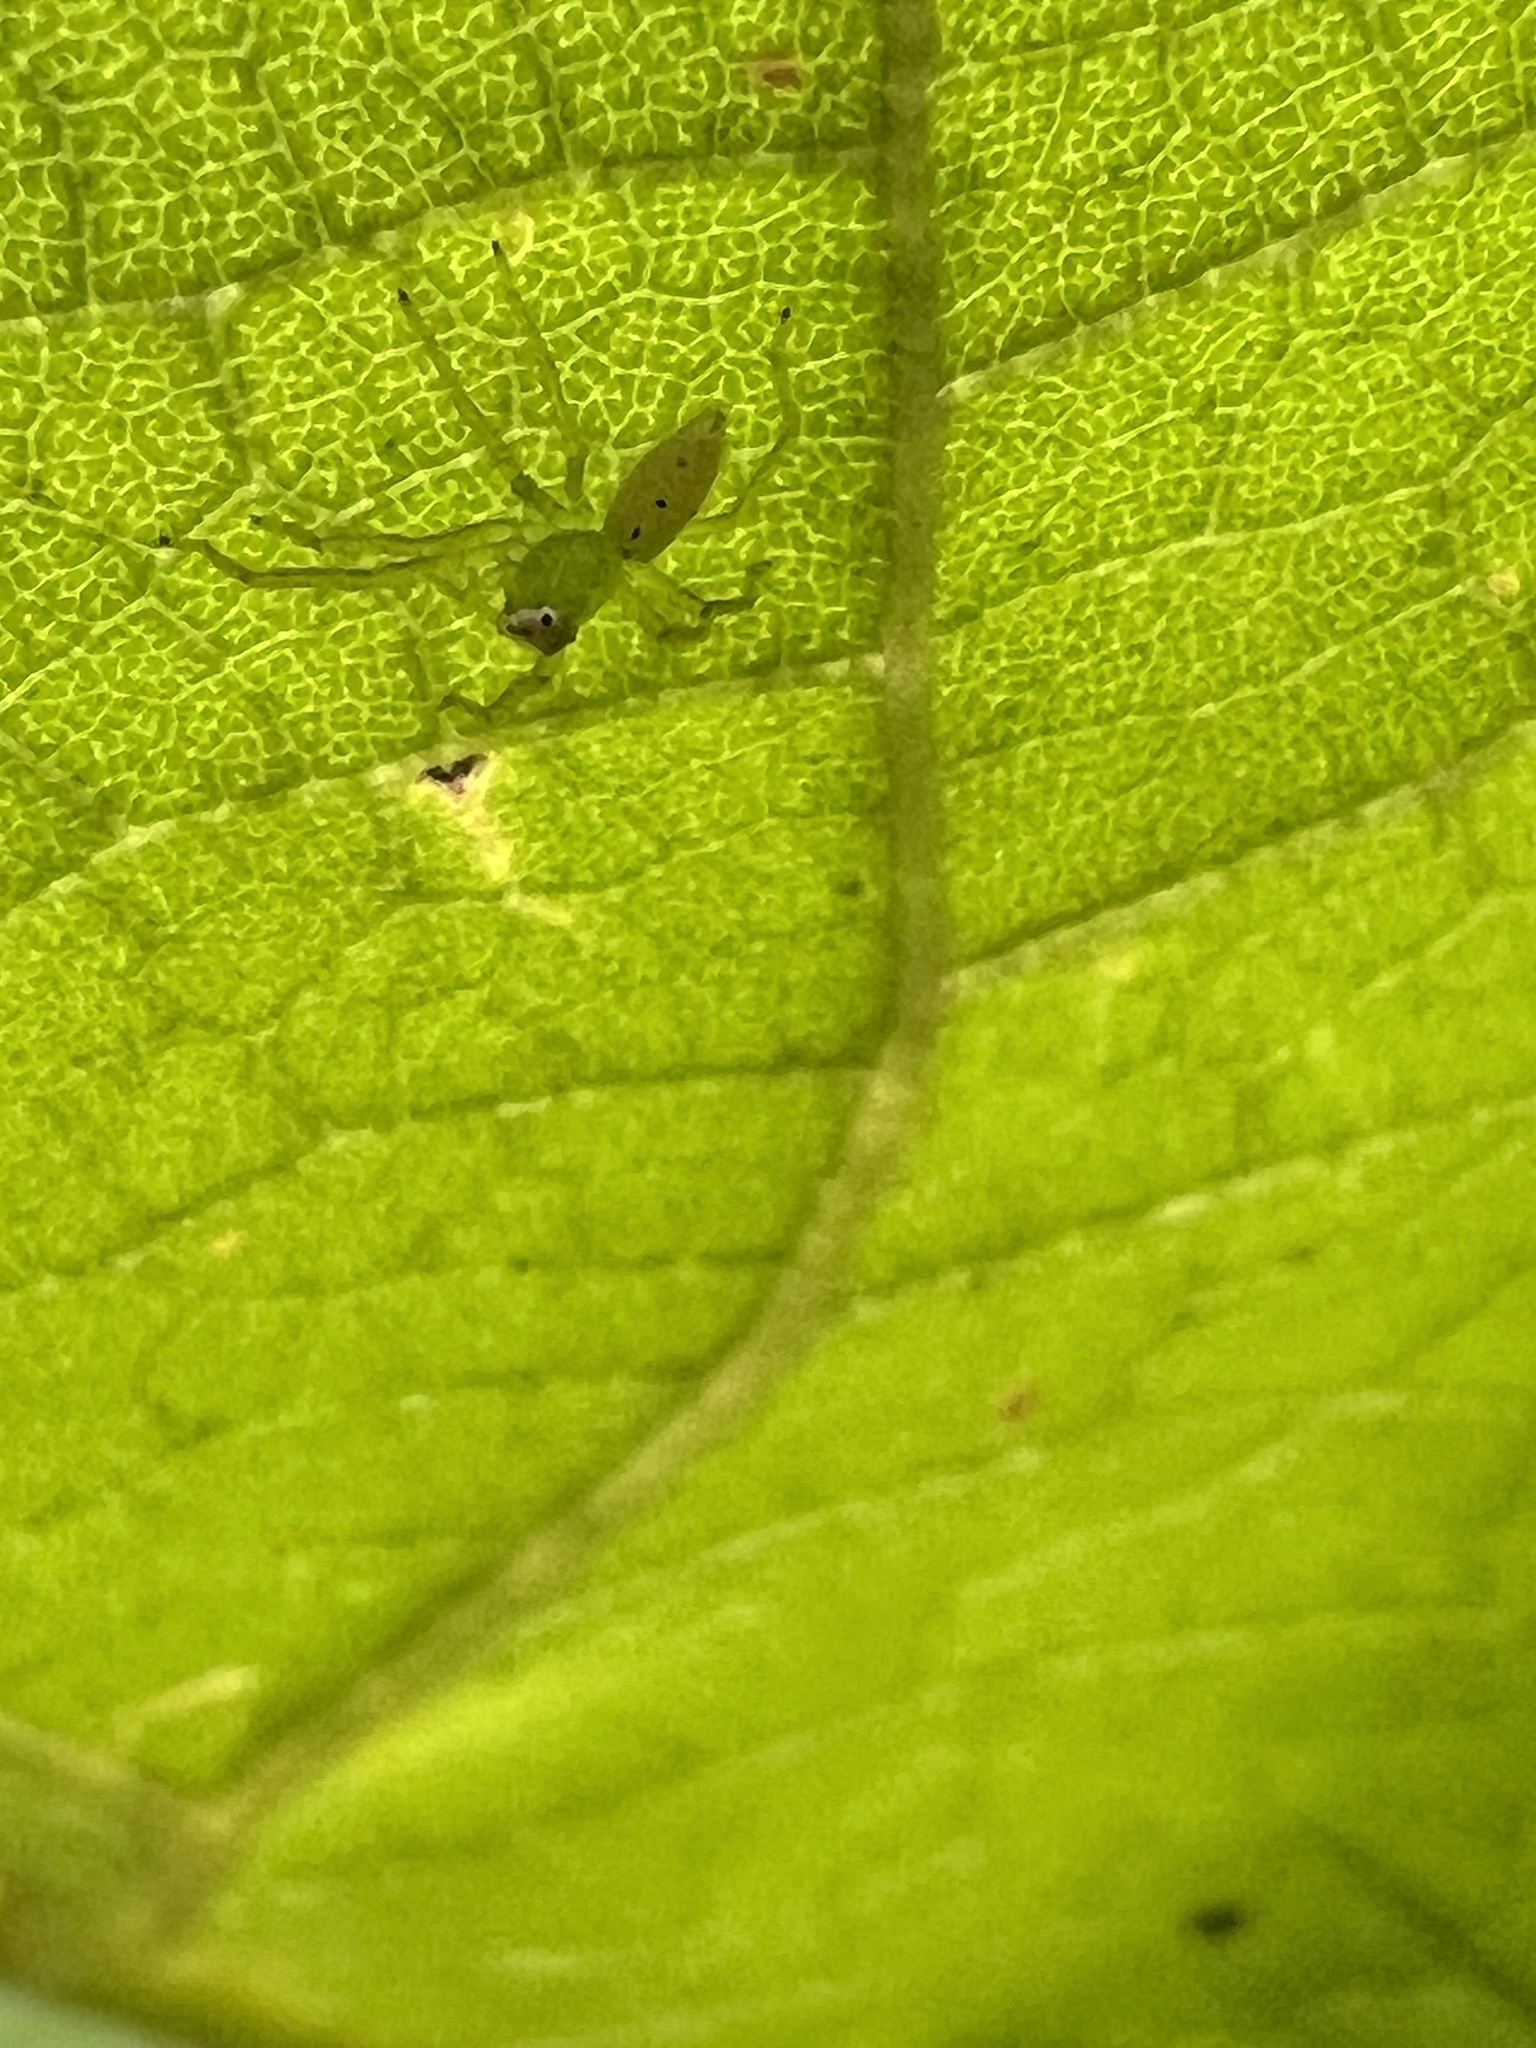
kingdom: Animalia
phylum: Arthropoda
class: Arachnida
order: Araneae
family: Salticidae
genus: Lyssomanes
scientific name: Lyssomanes viridis
